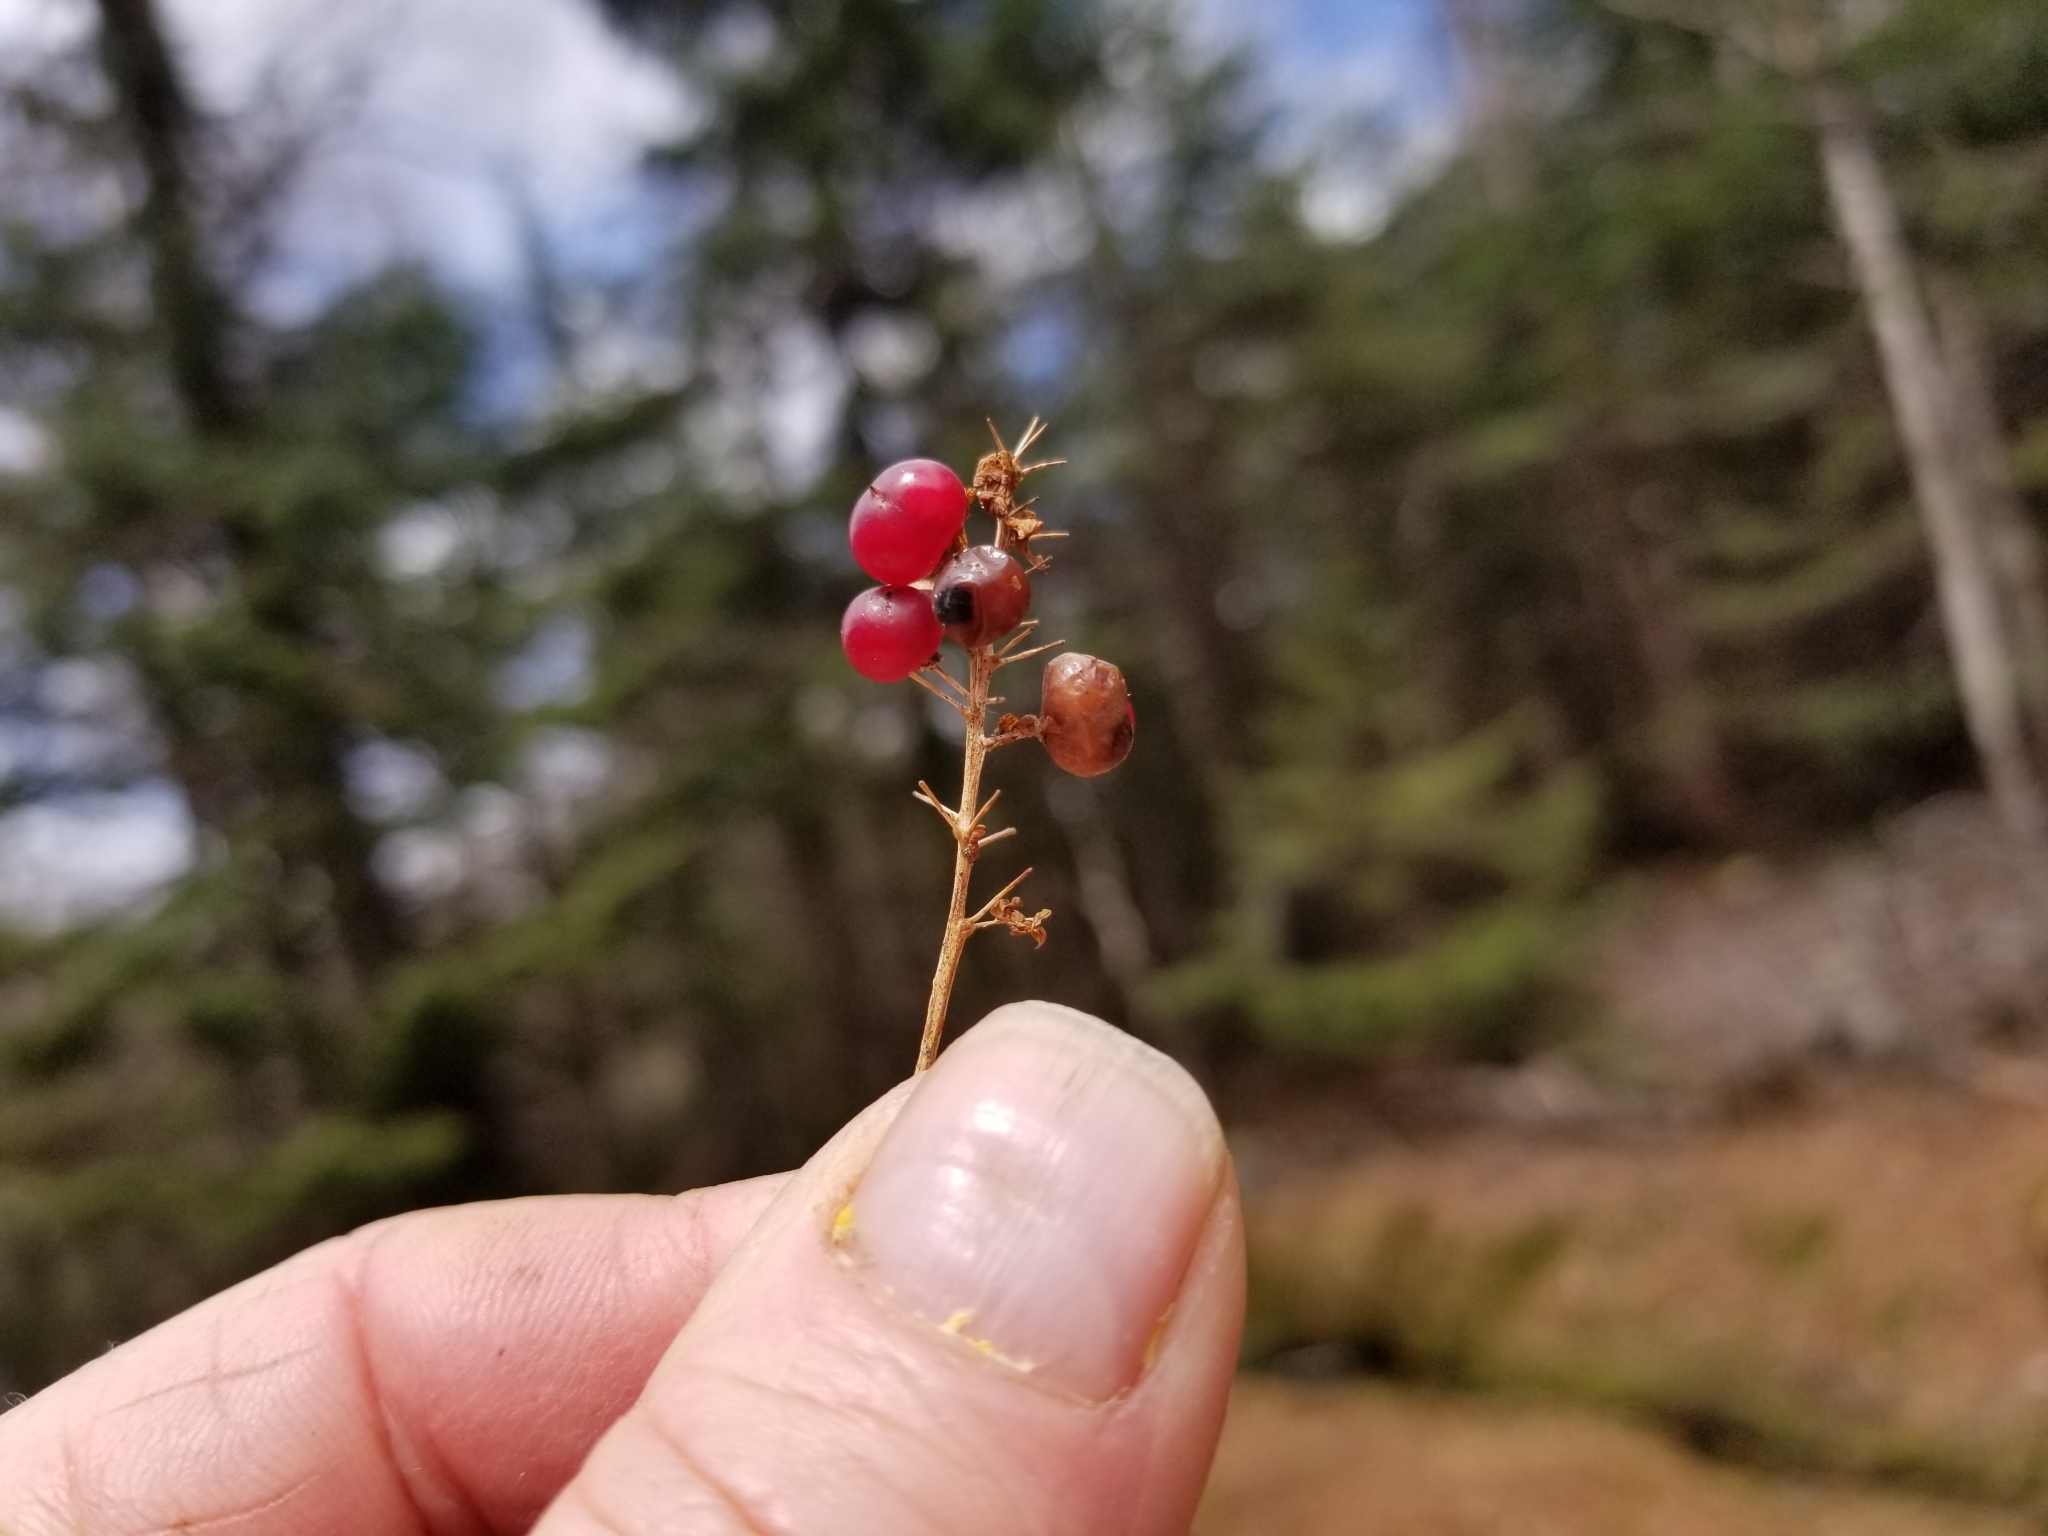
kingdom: Plantae
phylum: Tracheophyta
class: Liliopsida
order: Asparagales
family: Asparagaceae
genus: Maianthemum
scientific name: Maianthemum canadense
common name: False lily-of-the-valley
